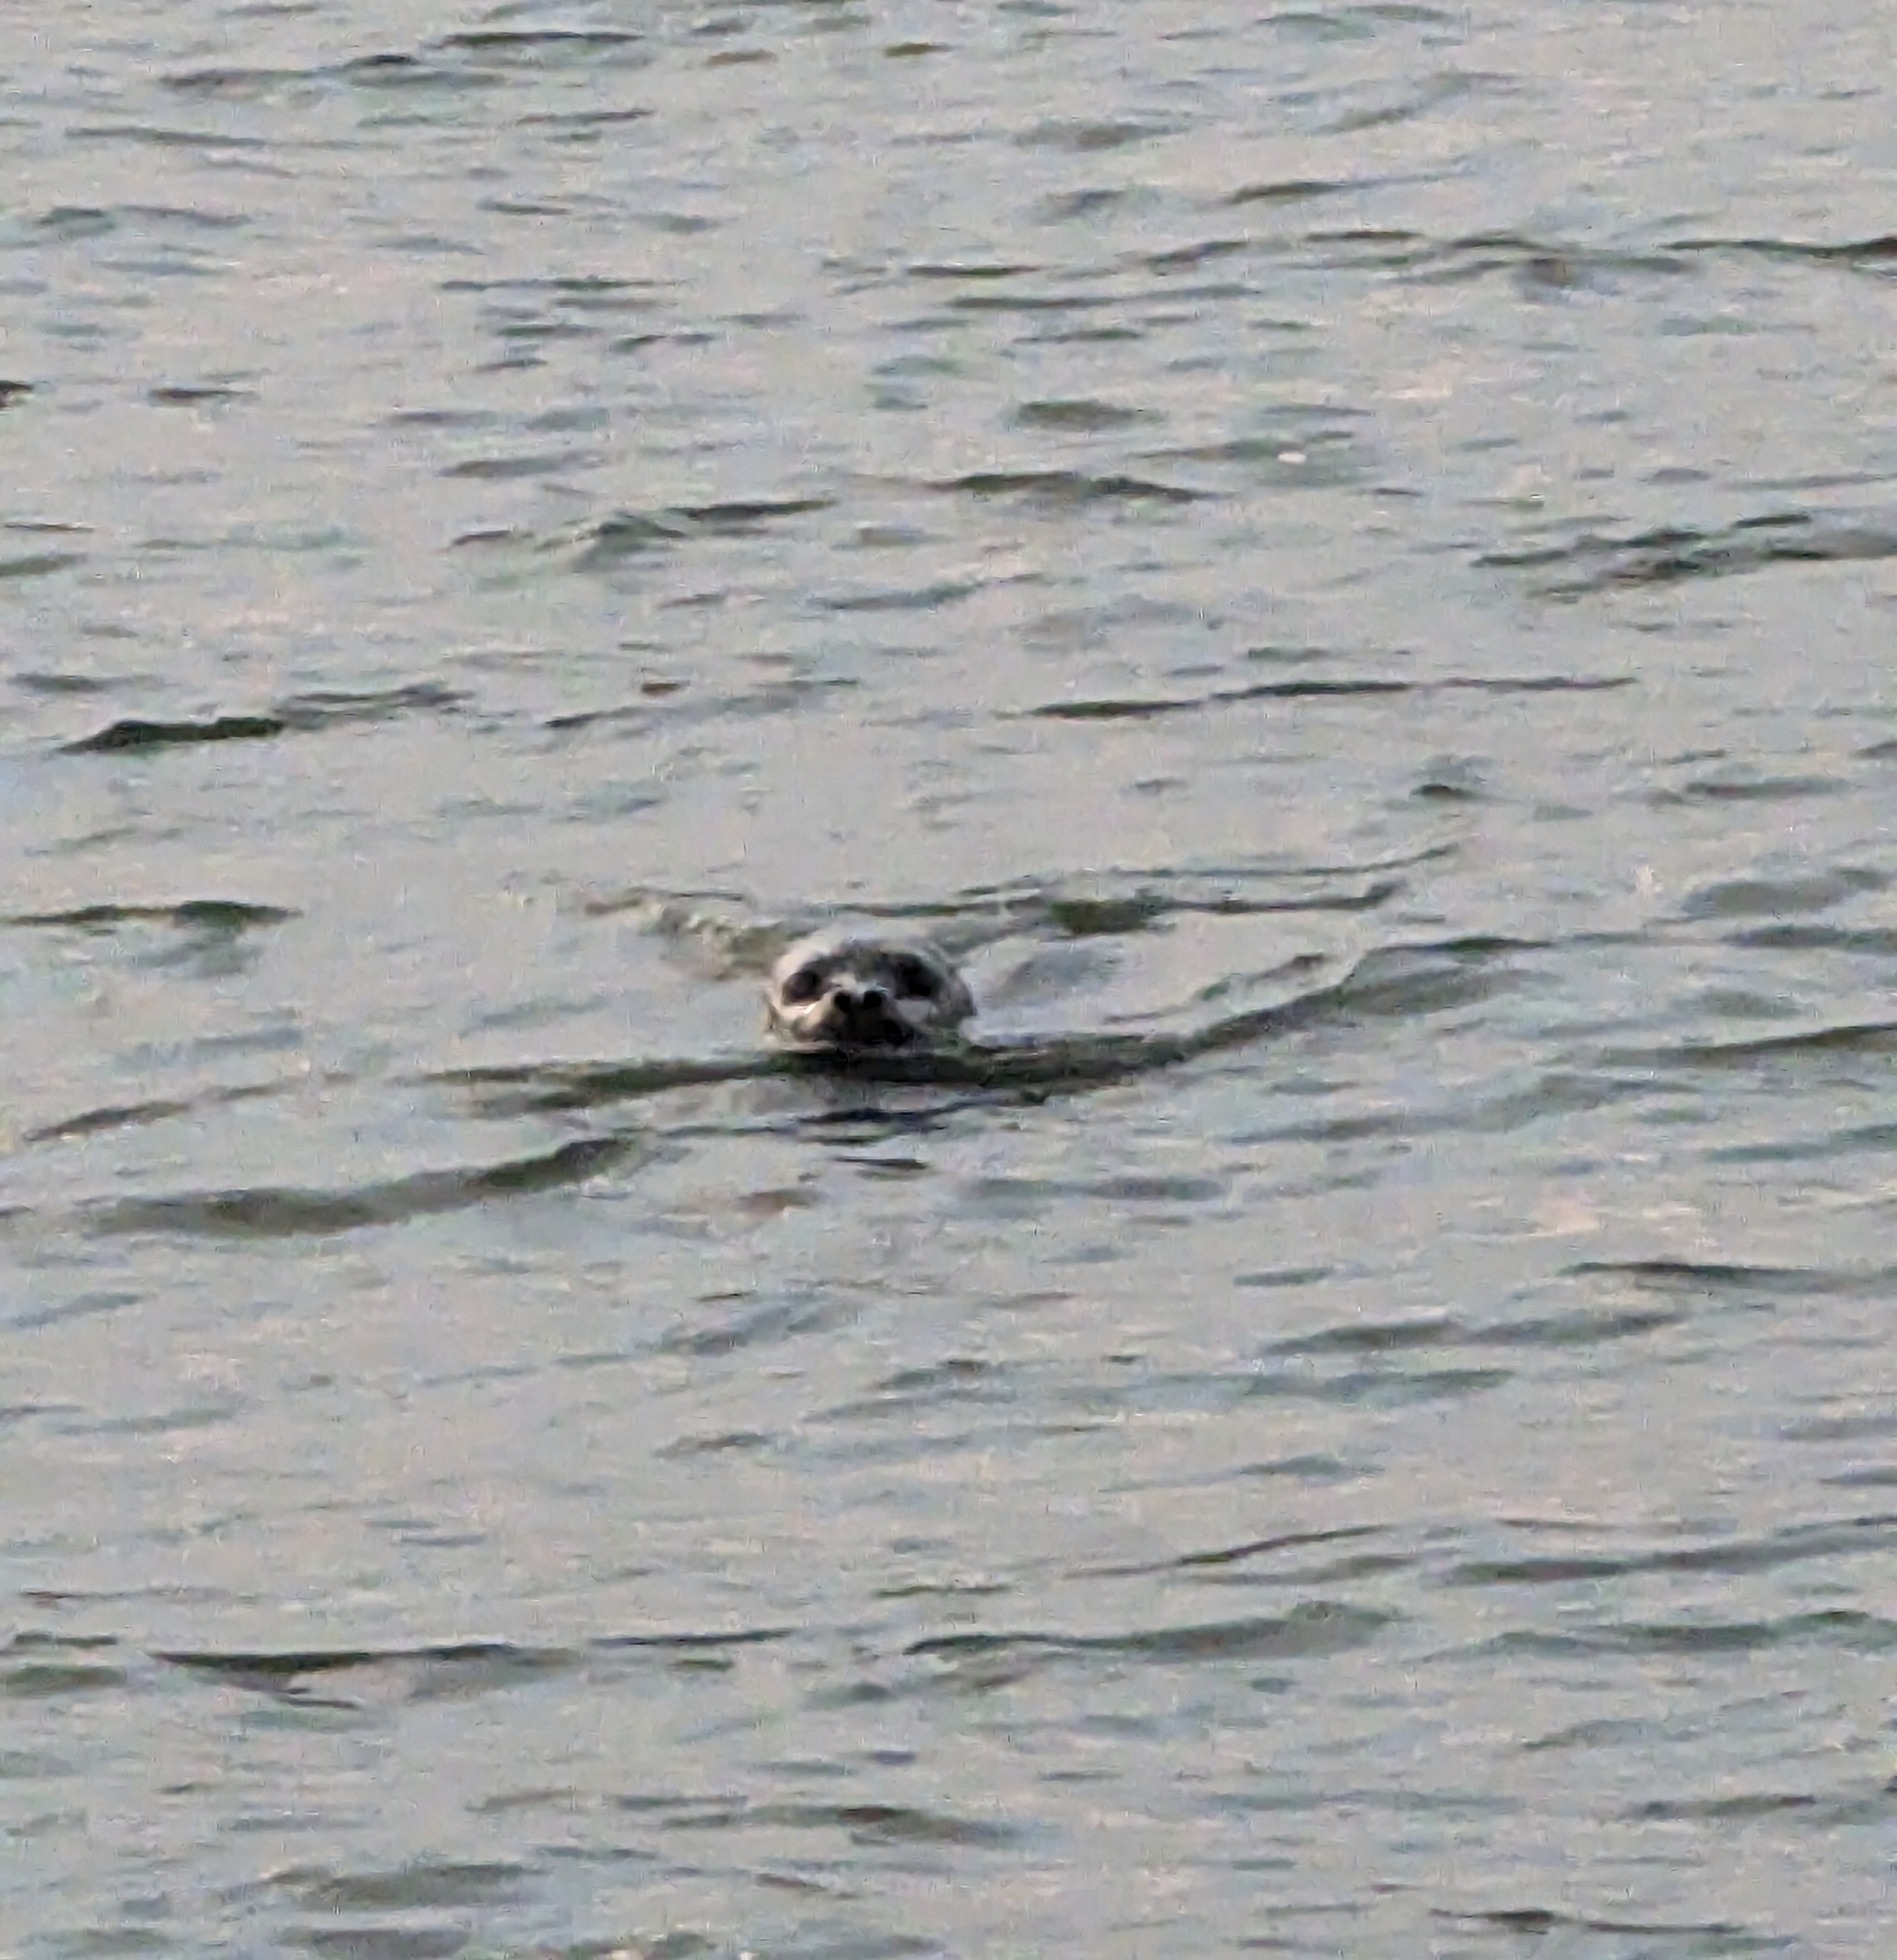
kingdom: Animalia
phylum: Chordata
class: Mammalia
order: Carnivora
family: Phocidae
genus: Phoca
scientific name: Phoca vitulina
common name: Harbor seal
